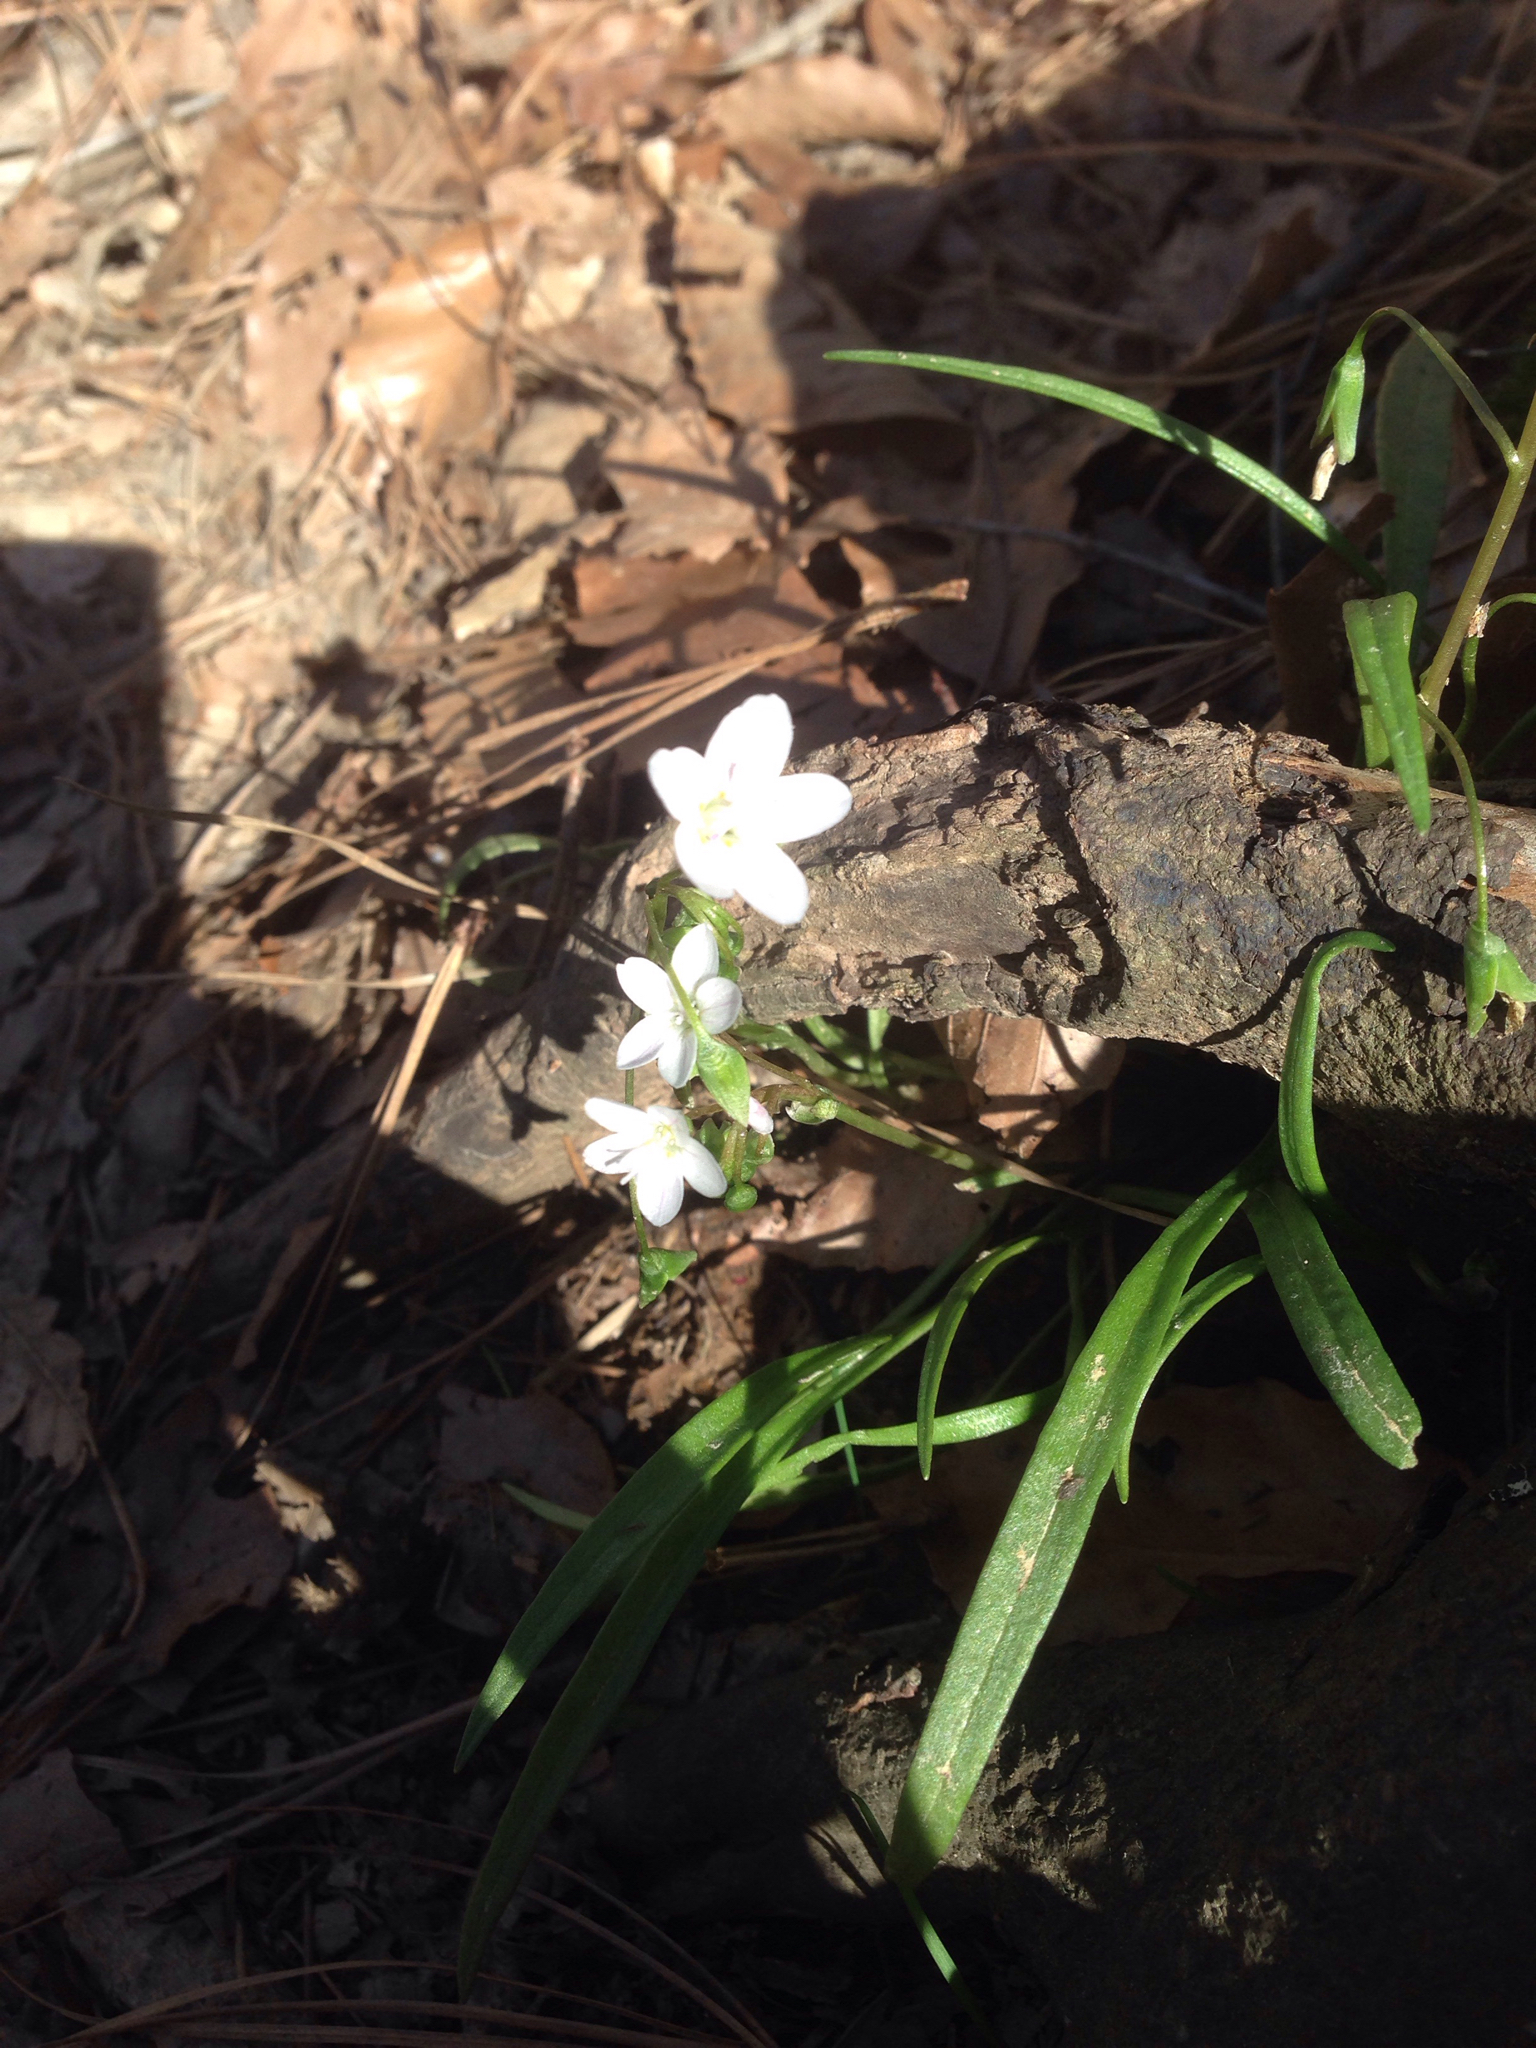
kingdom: Plantae
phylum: Tracheophyta
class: Magnoliopsida
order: Caryophyllales
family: Montiaceae
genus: Claytonia
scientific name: Claytonia virginica
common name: Virginia springbeauty
